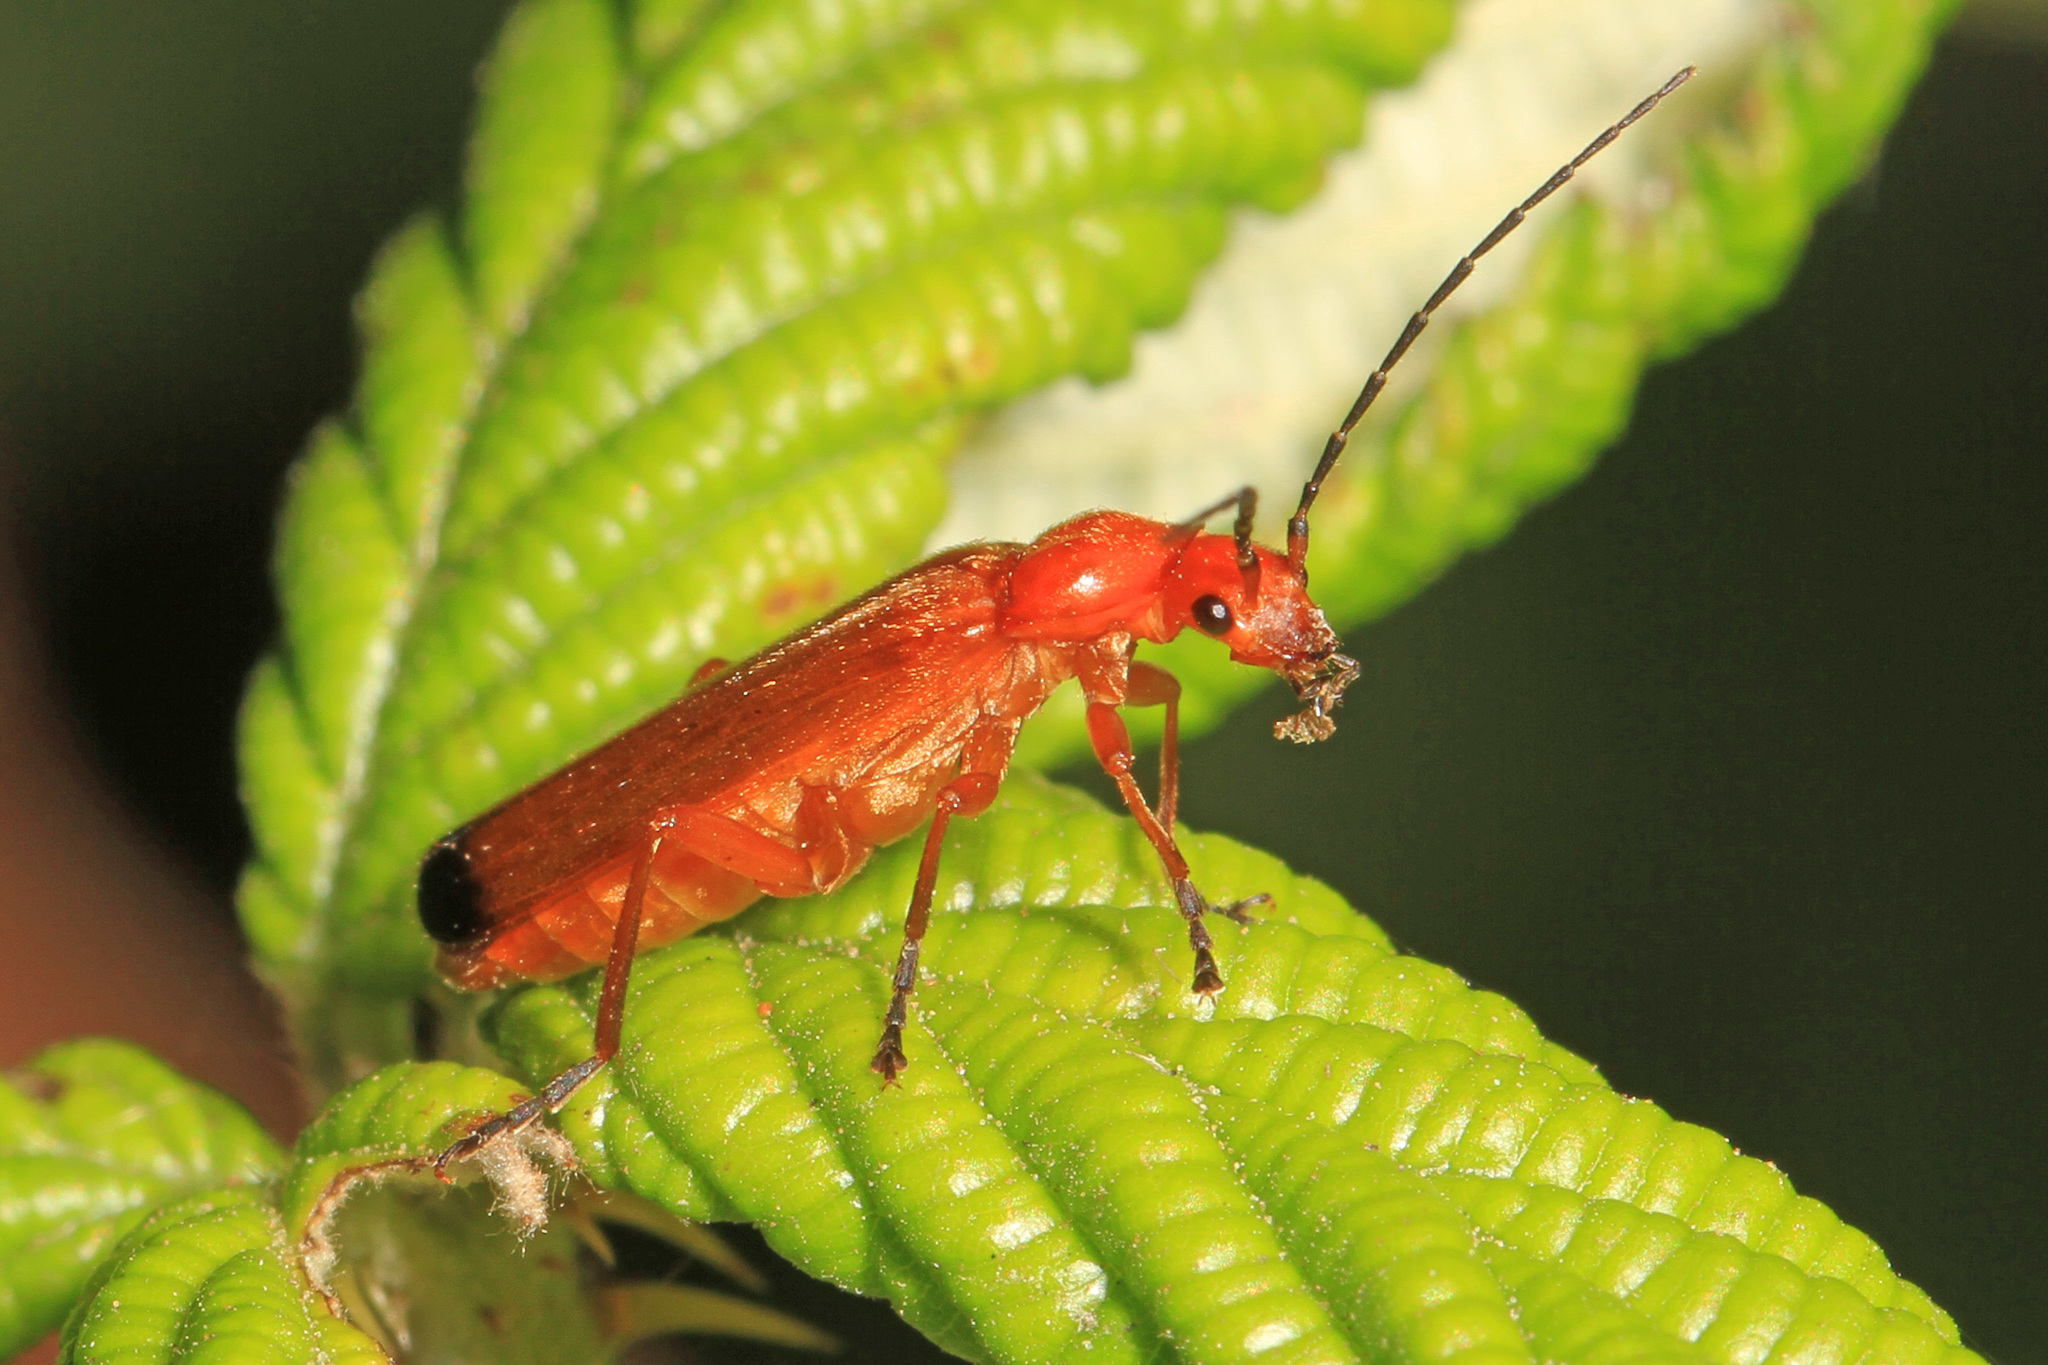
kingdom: Animalia
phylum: Arthropoda
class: Insecta
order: Coleoptera
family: Cantharidae
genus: Rhagonycha
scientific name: Rhagonycha fulva
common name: Common red soldier beetle
